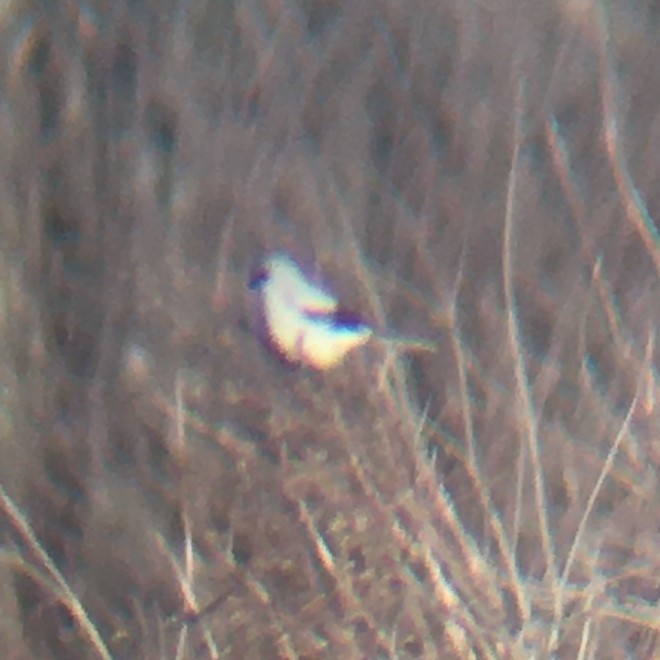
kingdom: Animalia
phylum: Chordata
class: Aves
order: Passeriformes
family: Laniidae
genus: Lanius
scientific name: Lanius borealis
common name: Northern shrike
